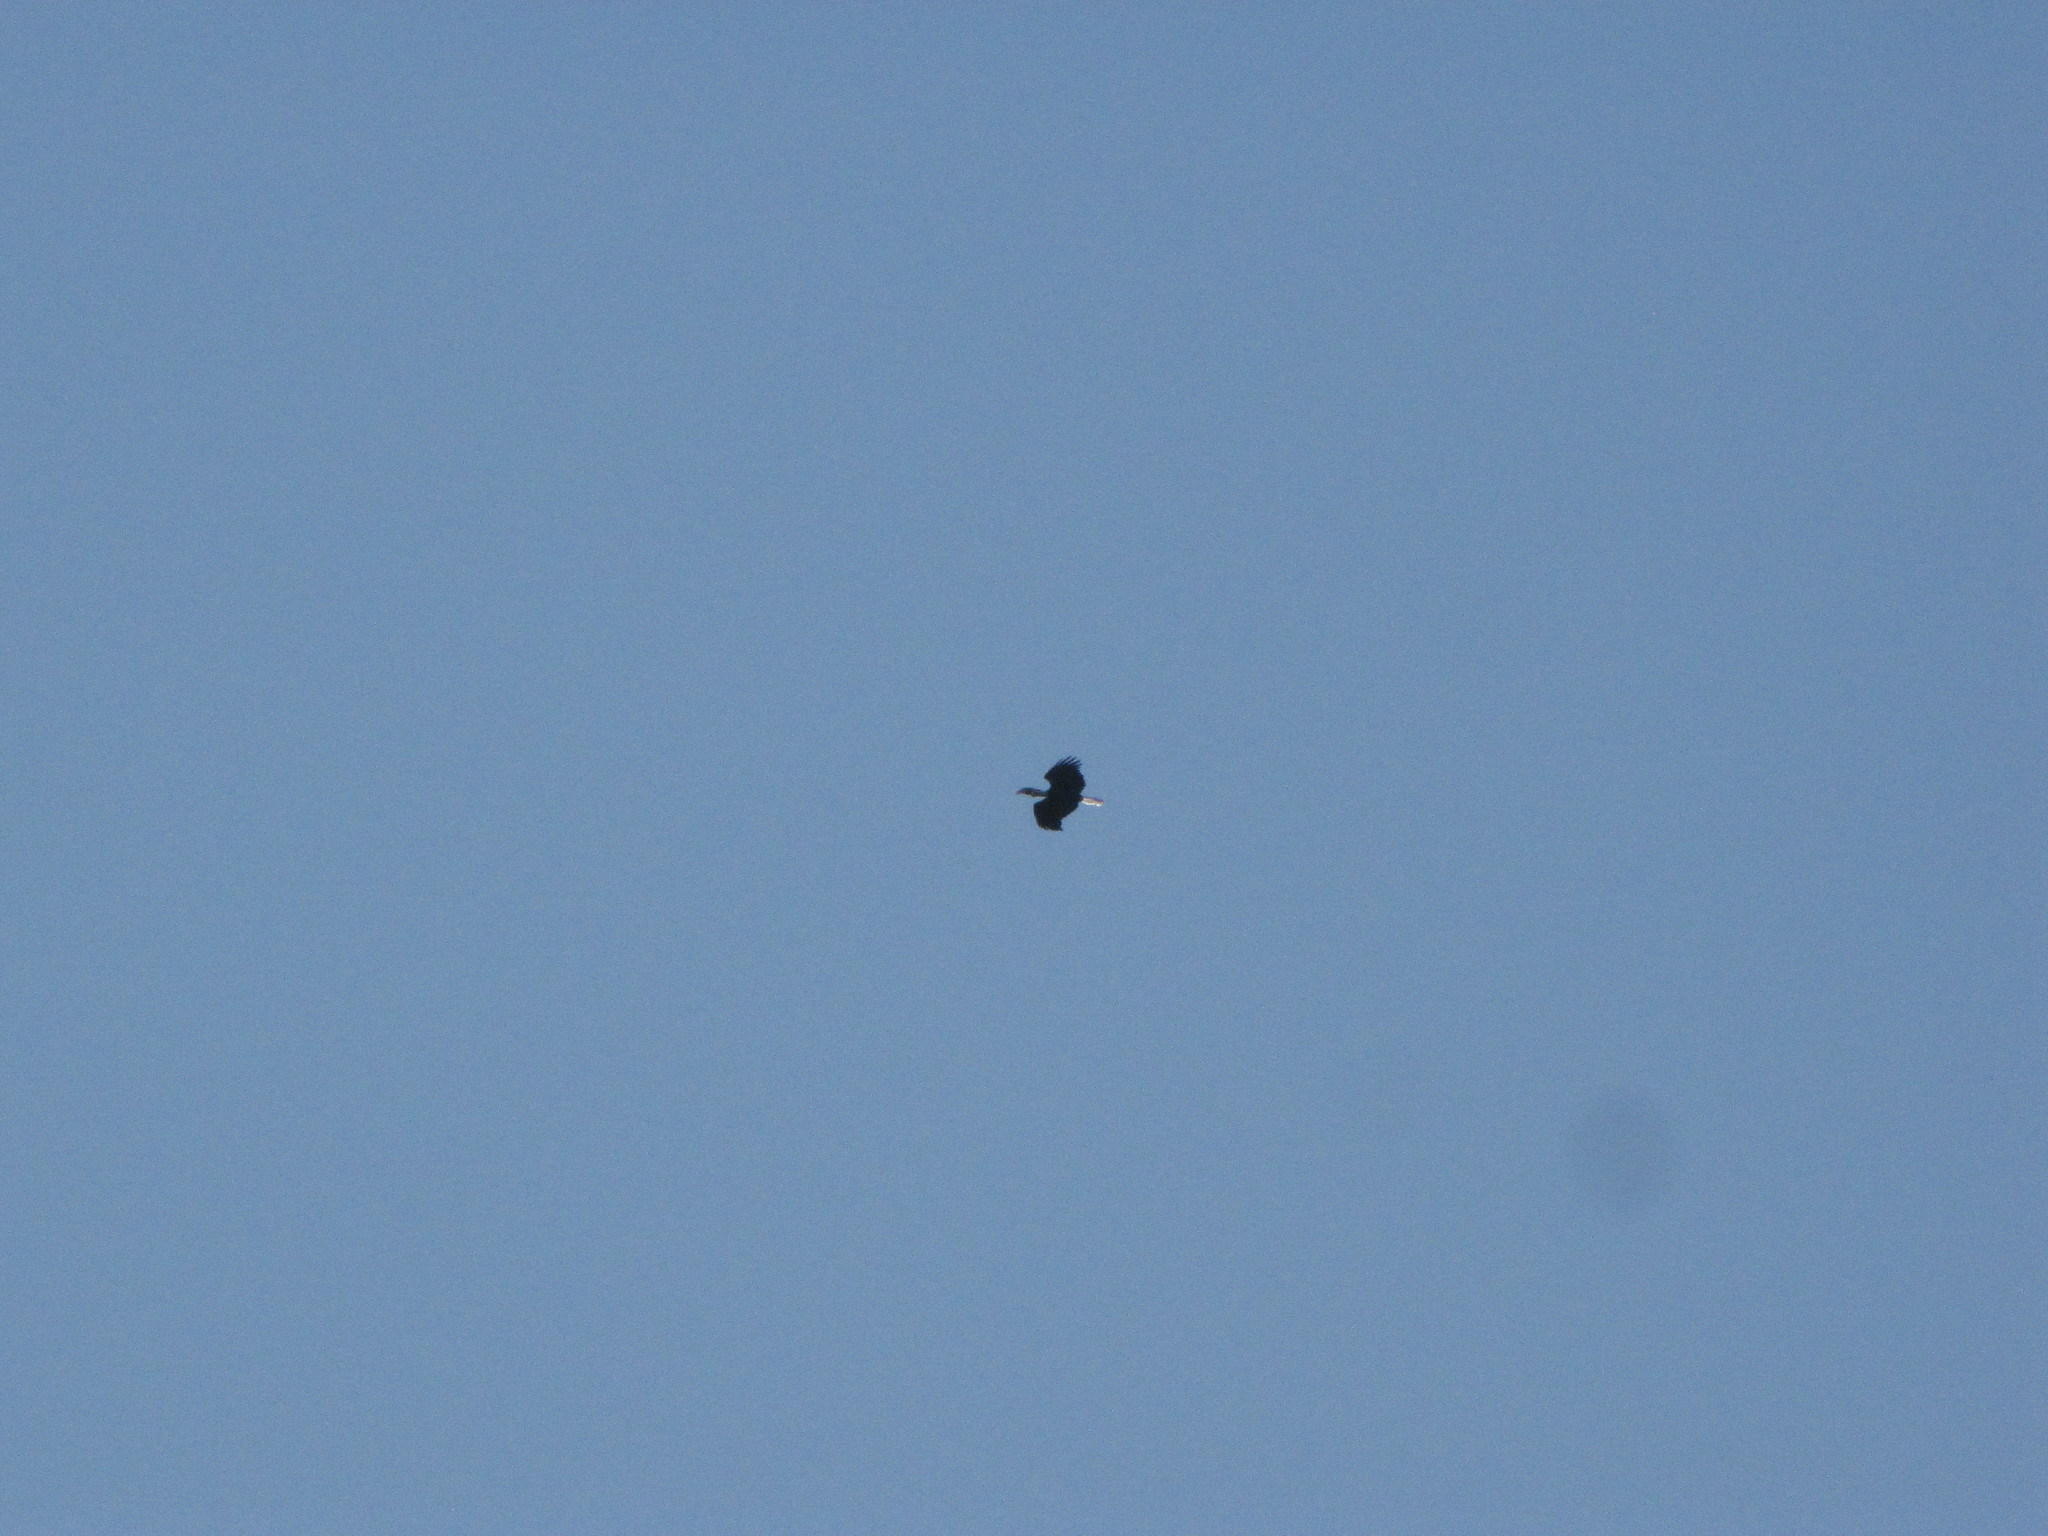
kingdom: Animalia
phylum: Chordata
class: Aves
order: Bucerotiformes
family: Bucerotidae
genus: Rhyticeros
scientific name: Rhyticeros undulatus
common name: Wreathed hornbill
